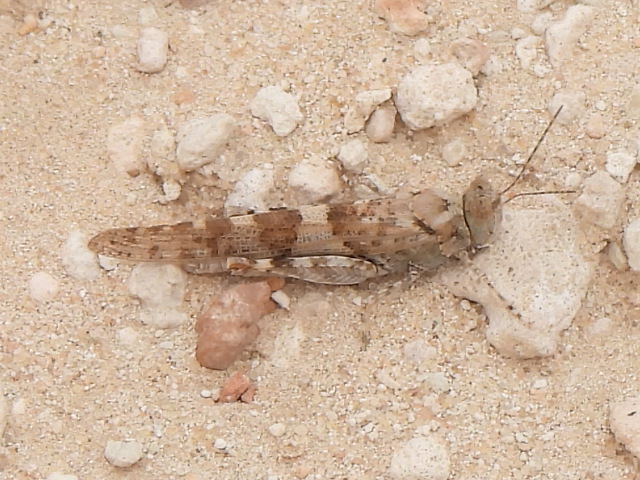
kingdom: Animalia
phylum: Arthropoda
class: Insecta
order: Orthoptera
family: Acrididae
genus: Sphingonotus
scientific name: Sphingonotus rubescens
